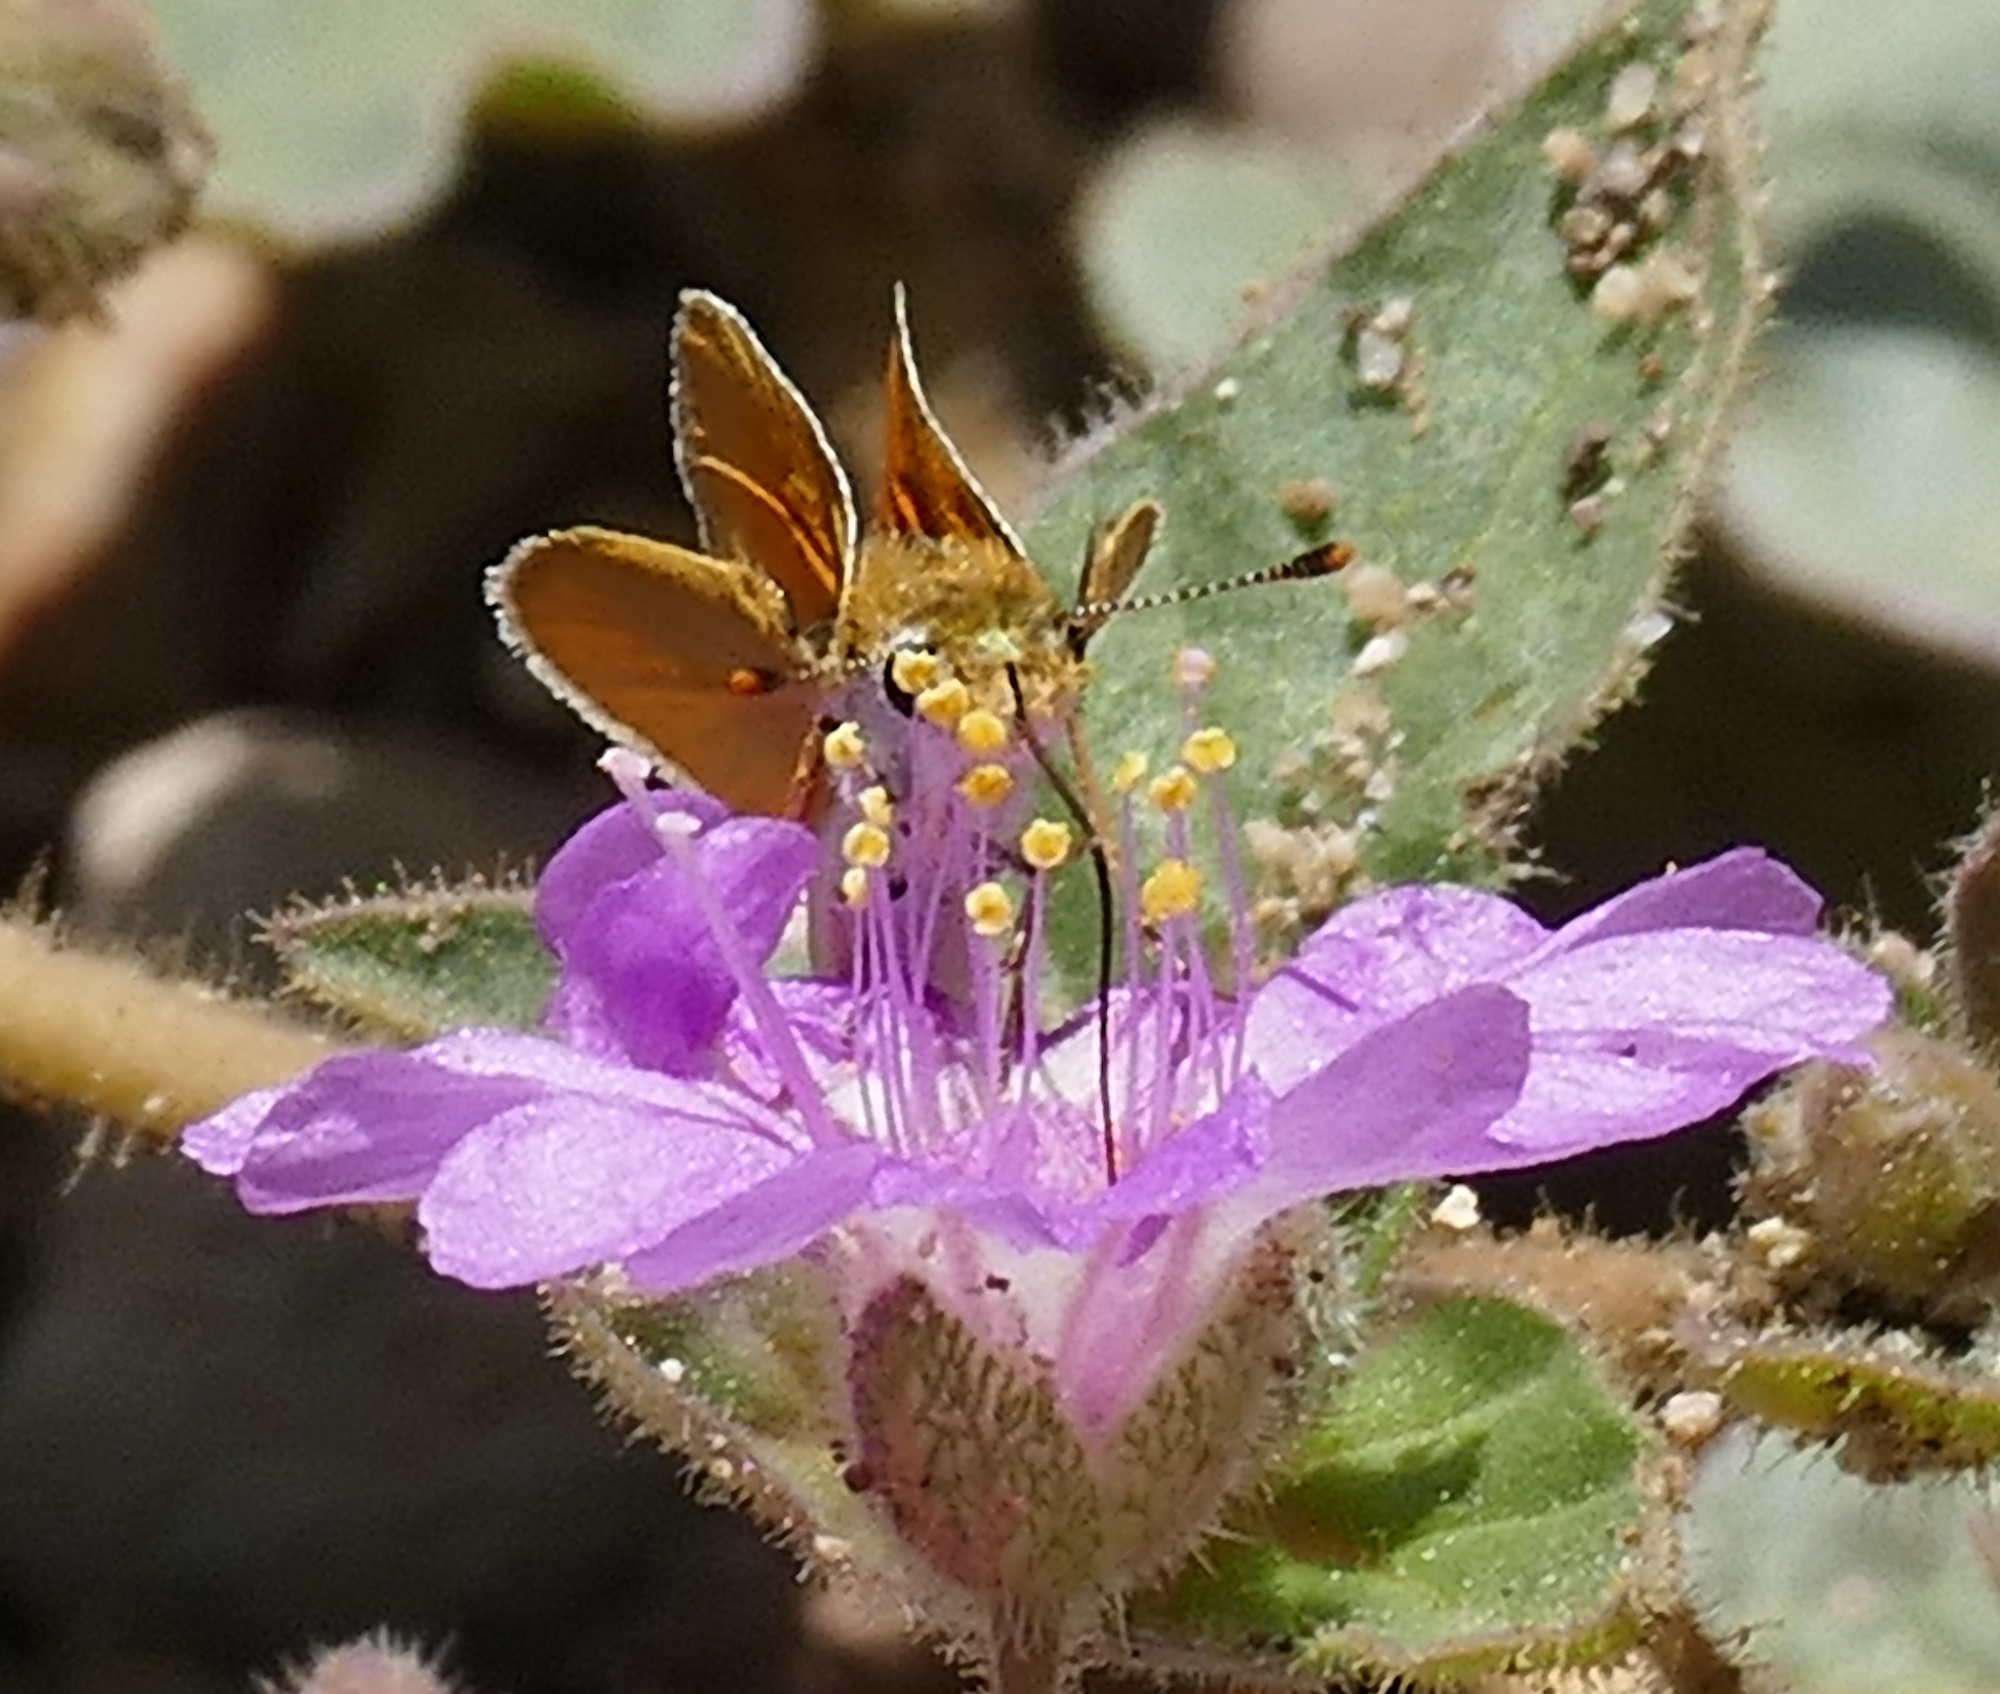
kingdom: Animalia
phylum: Arthropoda
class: Insecta
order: Lepidoptera
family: Hesperiidae
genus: Copaeodes
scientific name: Copaeodes aurantiaca
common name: Orange skipperling
